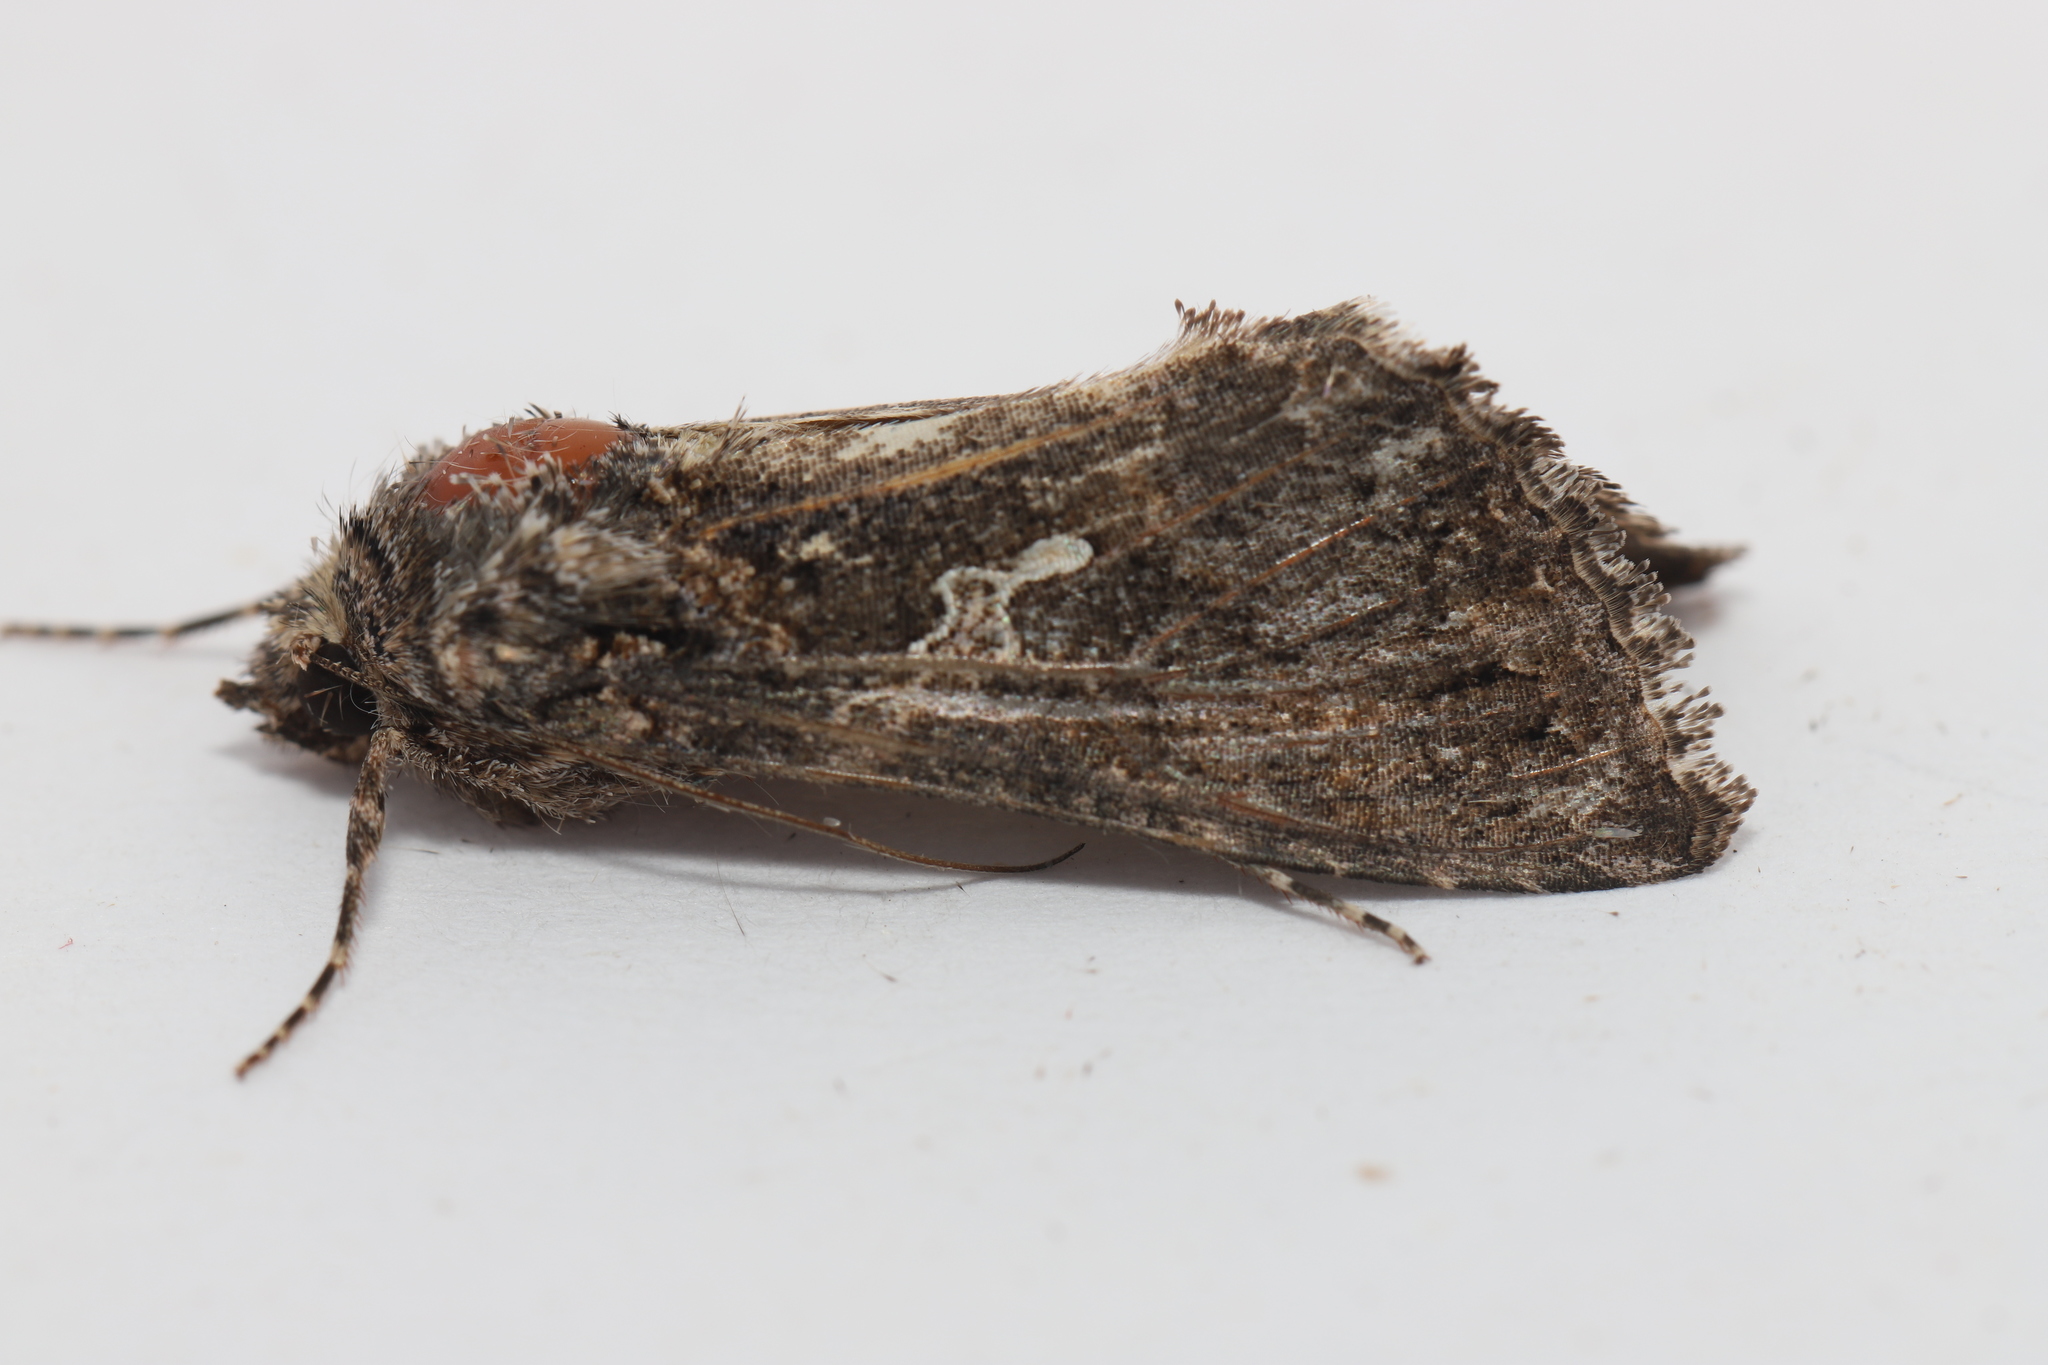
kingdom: Animalia
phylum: Arthropoda
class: Insecta
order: Lepidoptera
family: Noctuidae
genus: Trichoplusia
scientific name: Trichoplusia ni
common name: Ni moth
